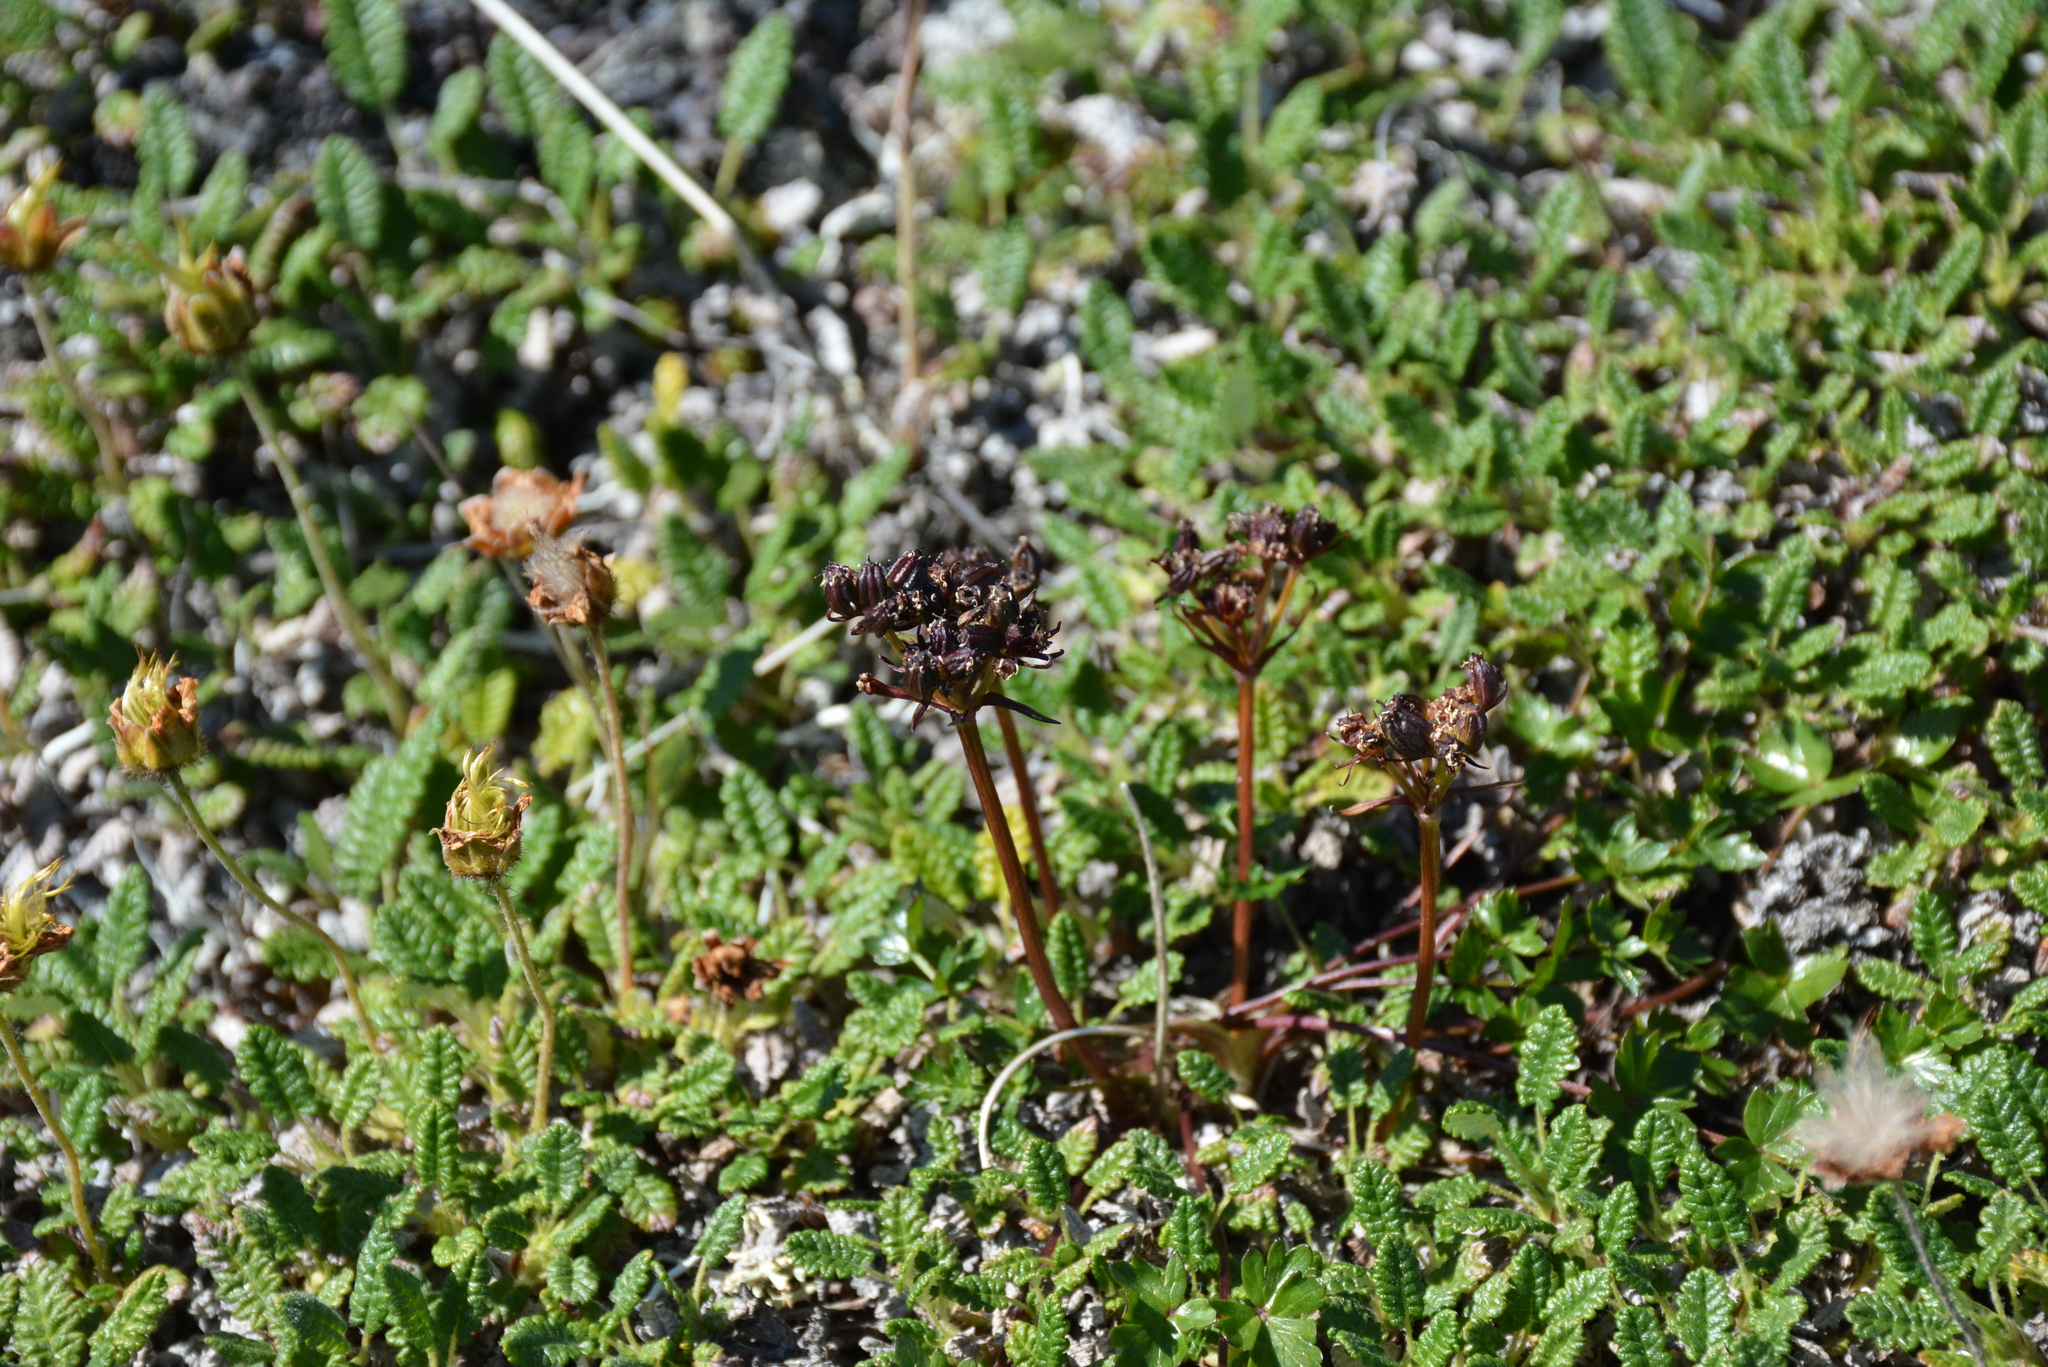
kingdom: Plantae
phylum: Tracheophyta
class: Magnoliopsida
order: Apiales
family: Apiaceae
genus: Orumbella
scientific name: Orumbella macounii
